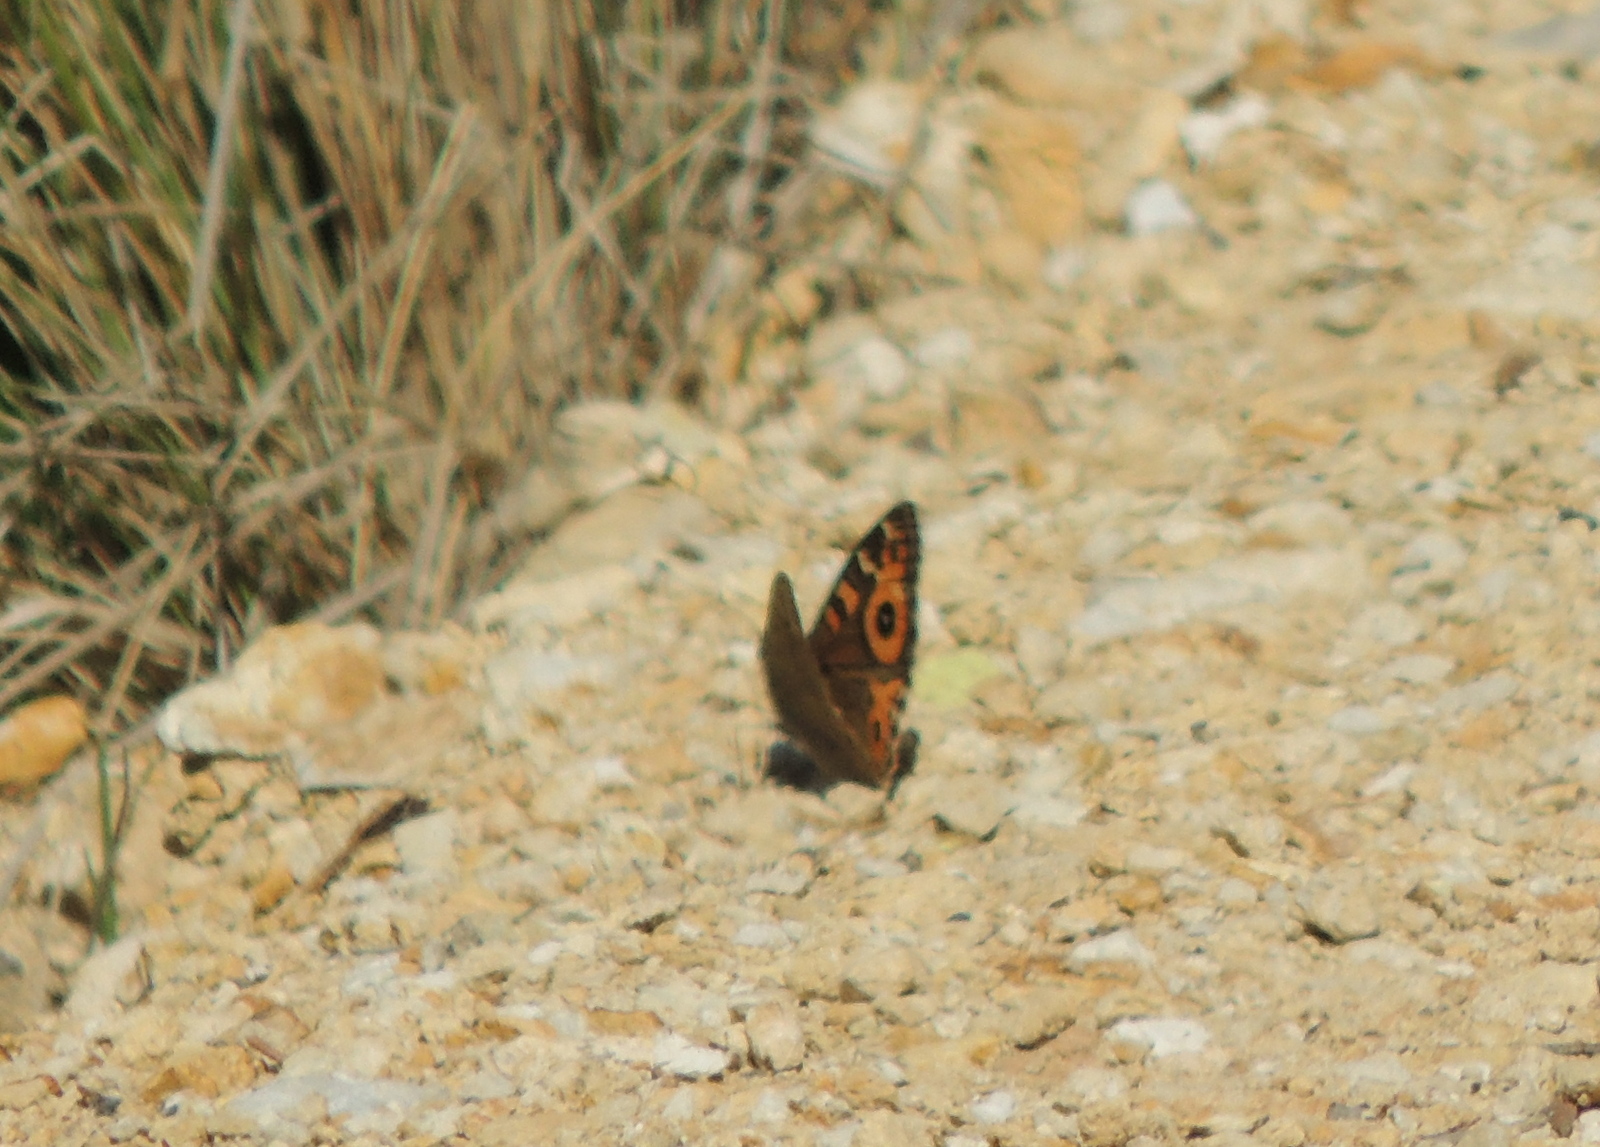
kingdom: Animalia
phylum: Arthropoda
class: Insecta
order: Lepidoptera
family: Nymphalidae
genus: Junonia
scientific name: Junonia villida
